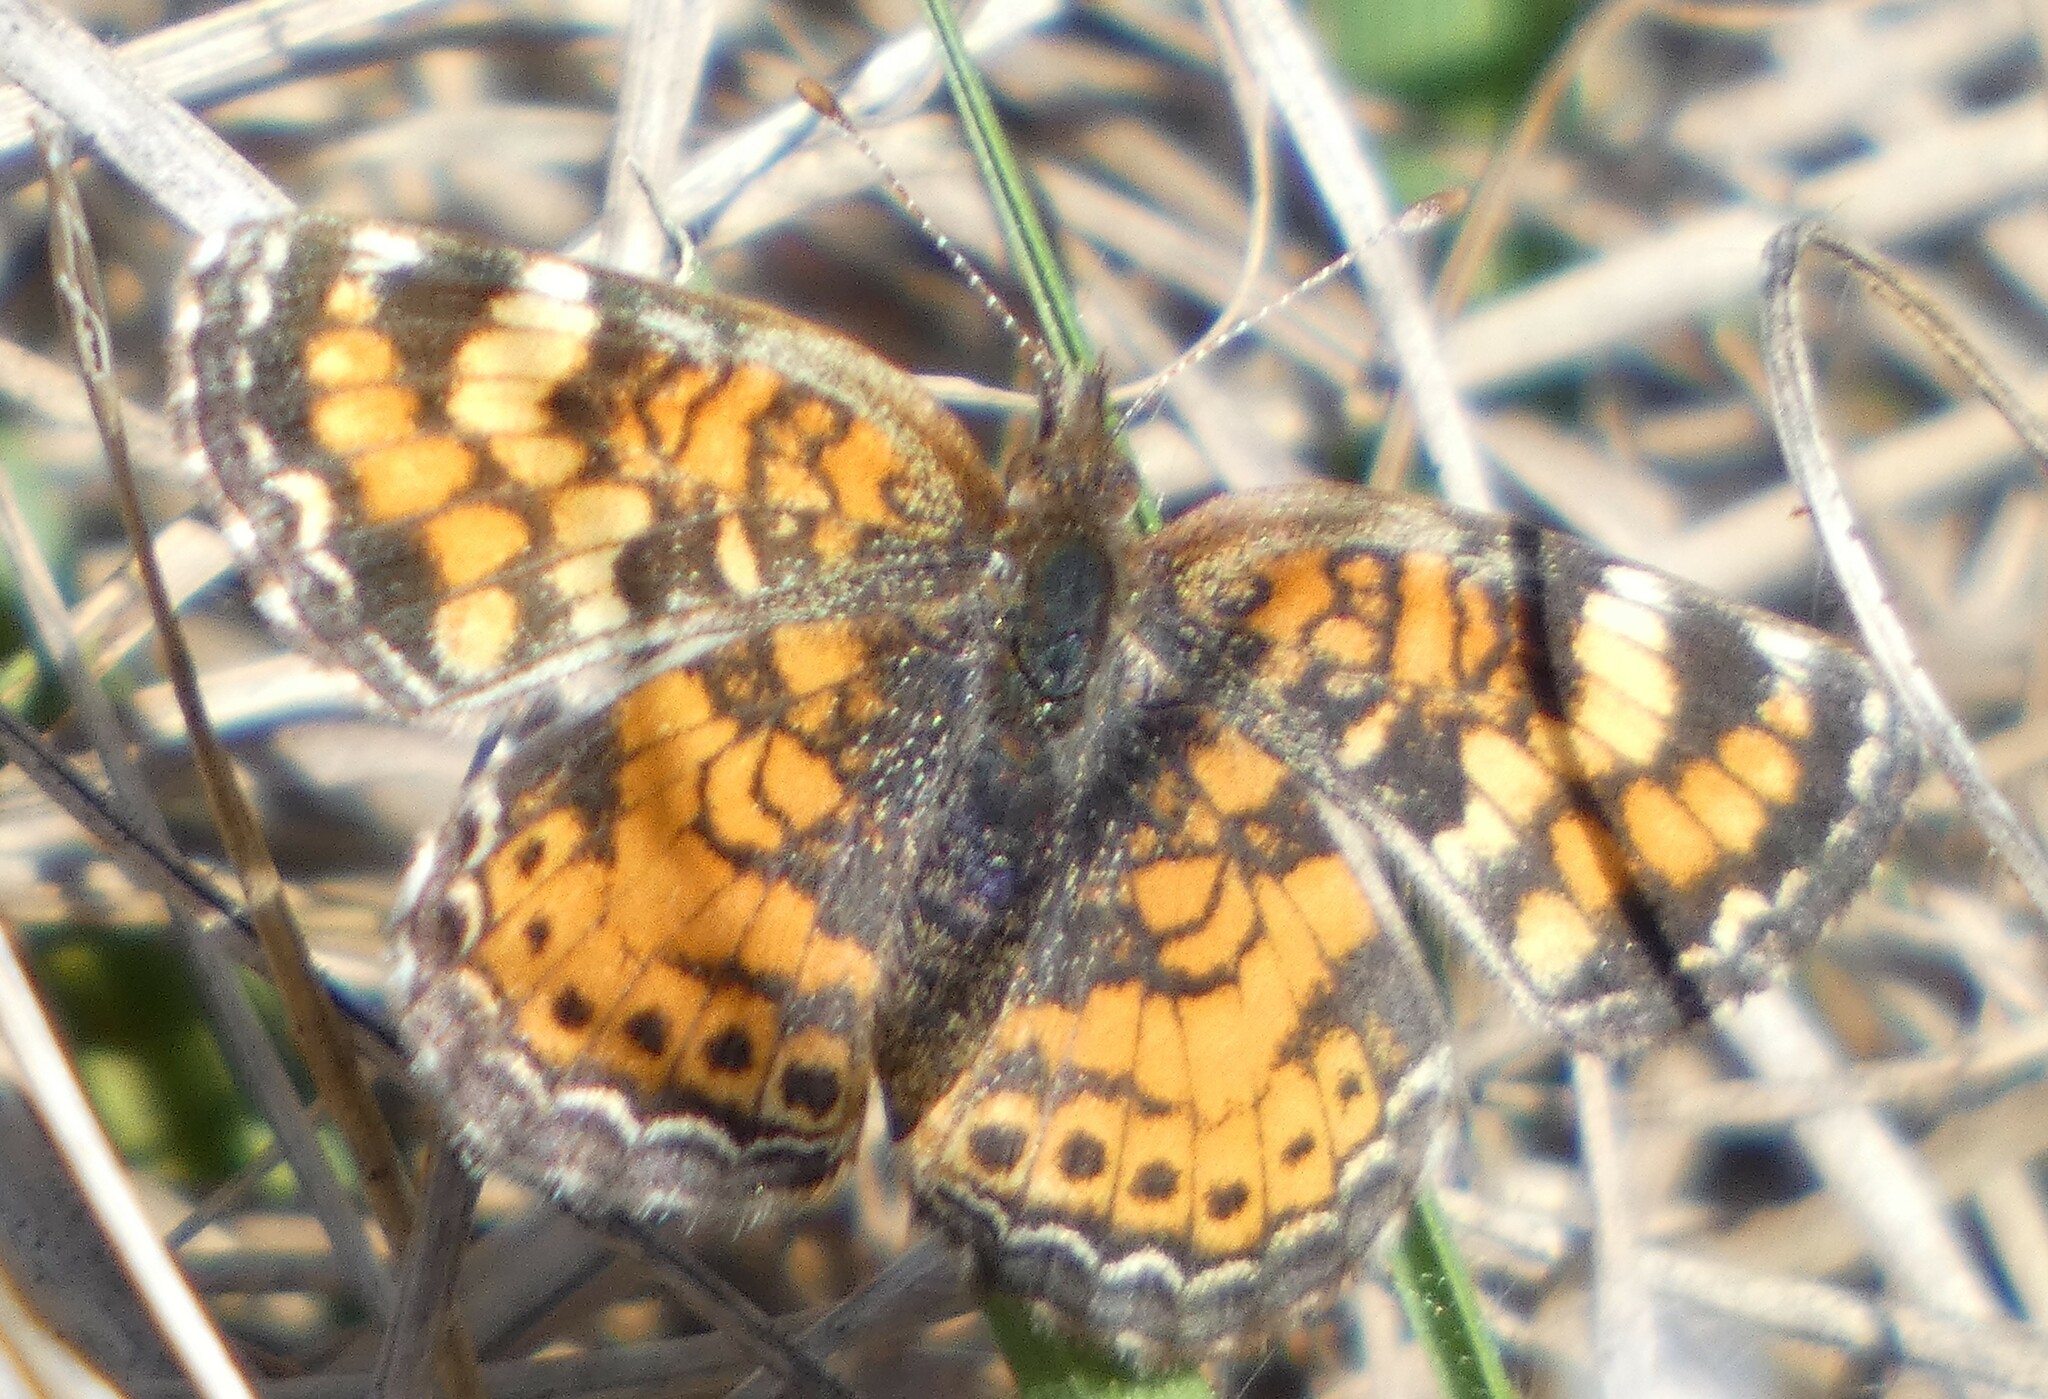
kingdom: Animalia
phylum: Arthropoda
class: Insecta
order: Lepidoptera
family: Nymphalidae
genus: Phyciodes
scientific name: Phyciodes phaon
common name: Phaon crescent
